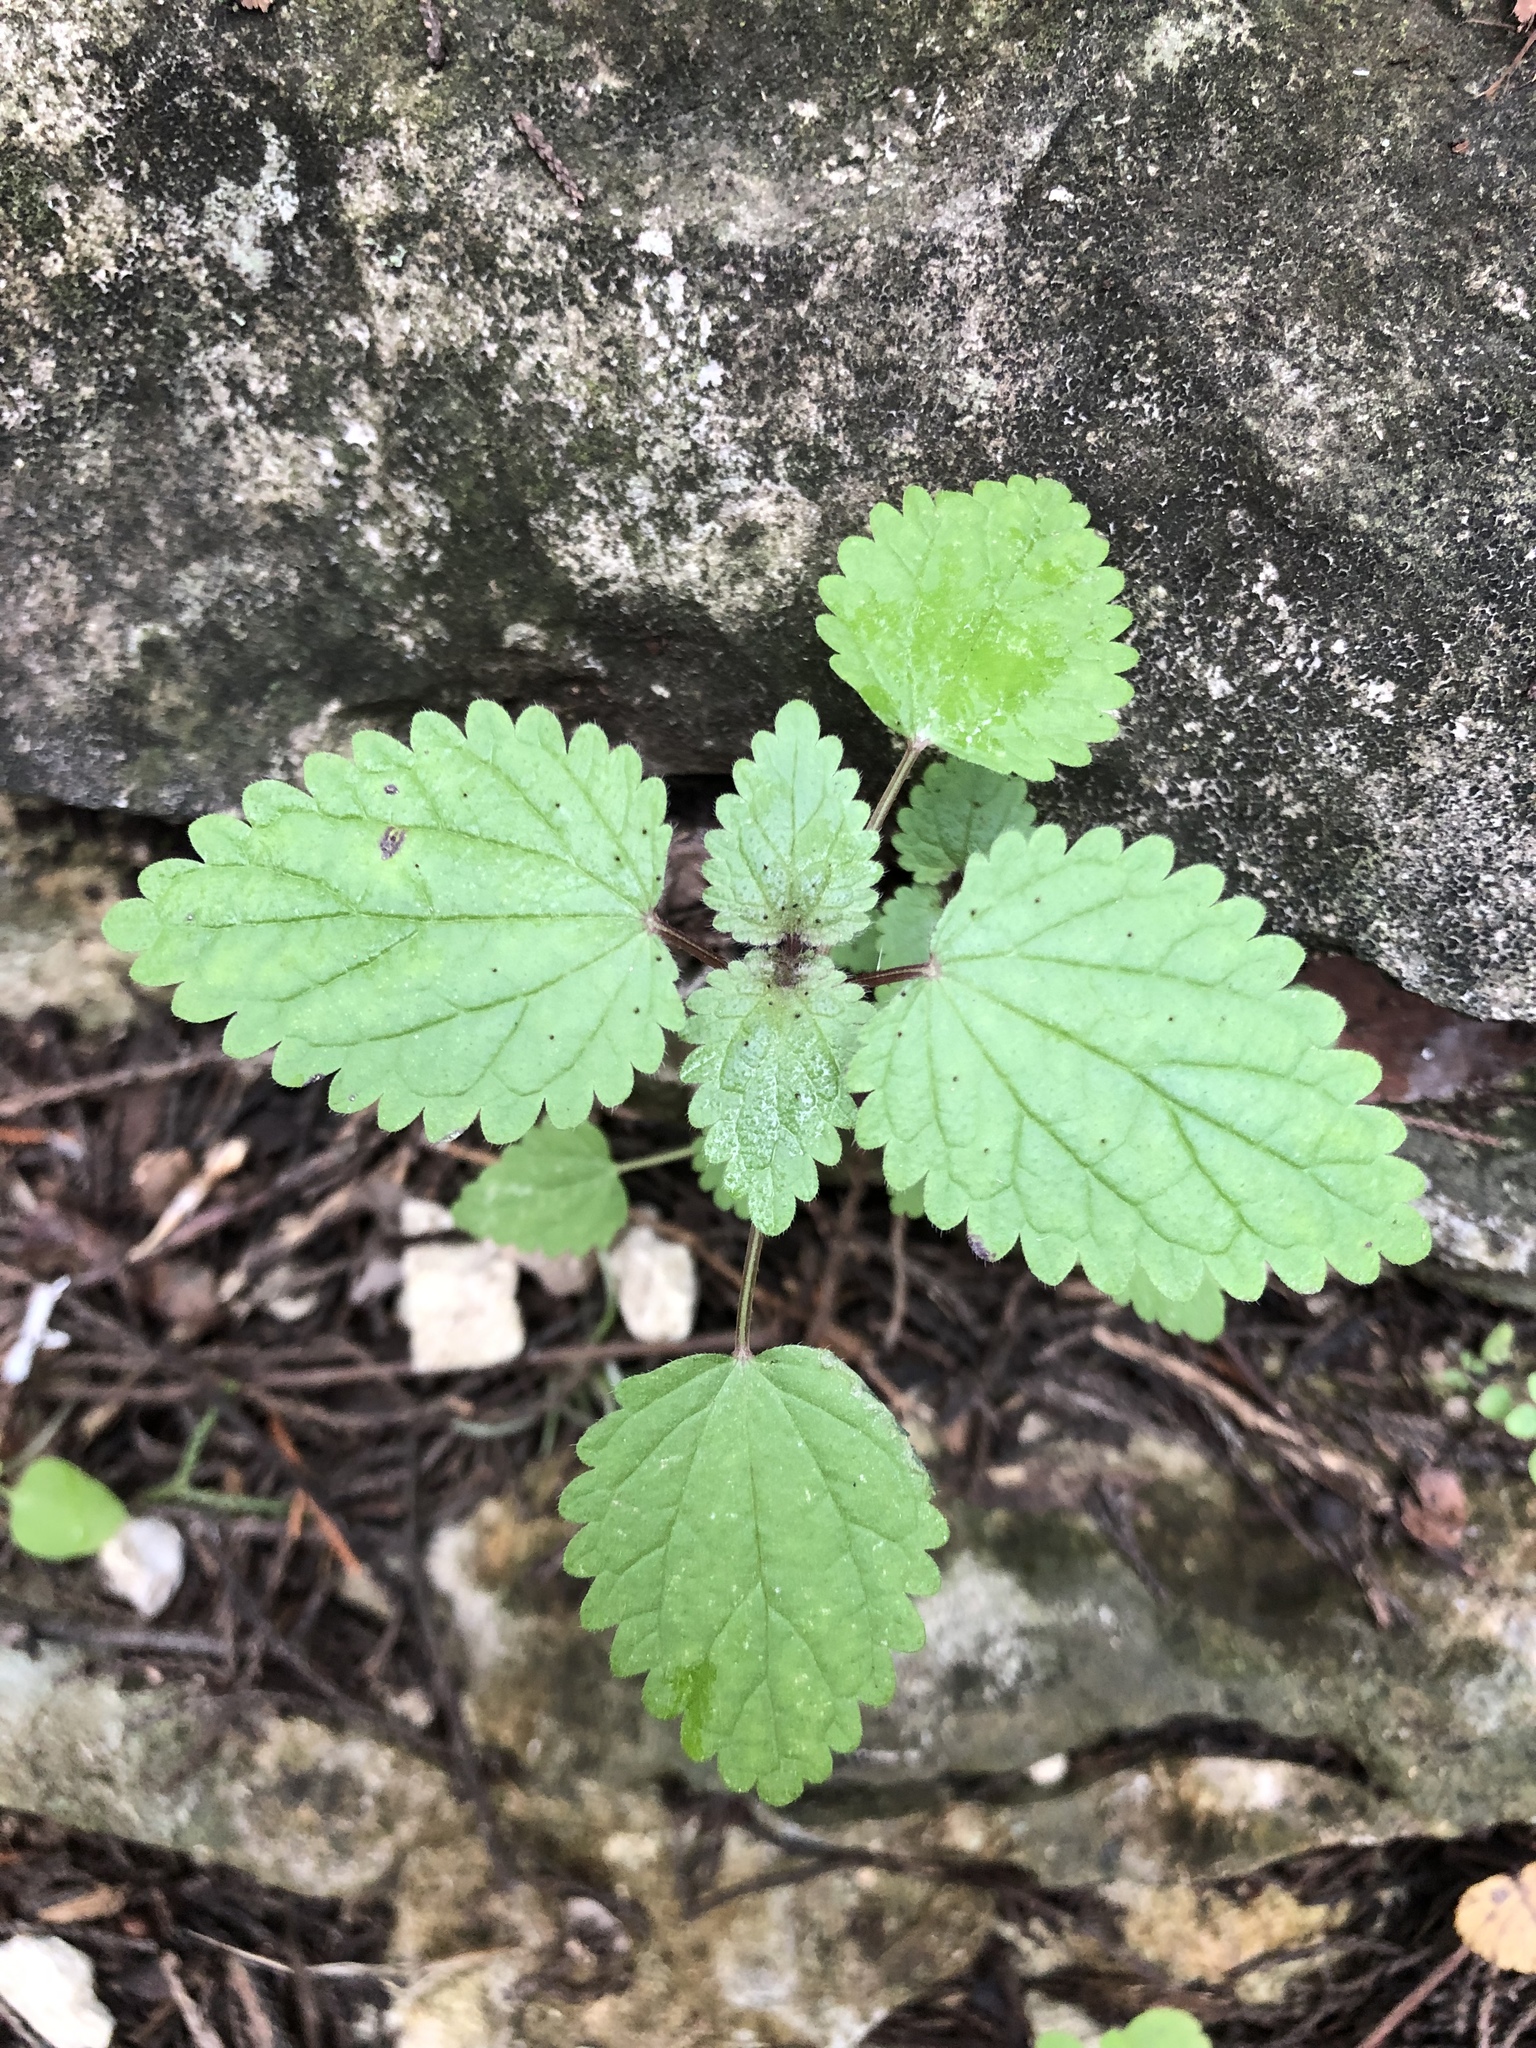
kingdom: Plantae
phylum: Tracheophyta
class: Magnoliopsida
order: Rosales
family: Urticaceae
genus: Urtica
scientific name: Urtica chamaedryoides
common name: Heart-leaf nettle
